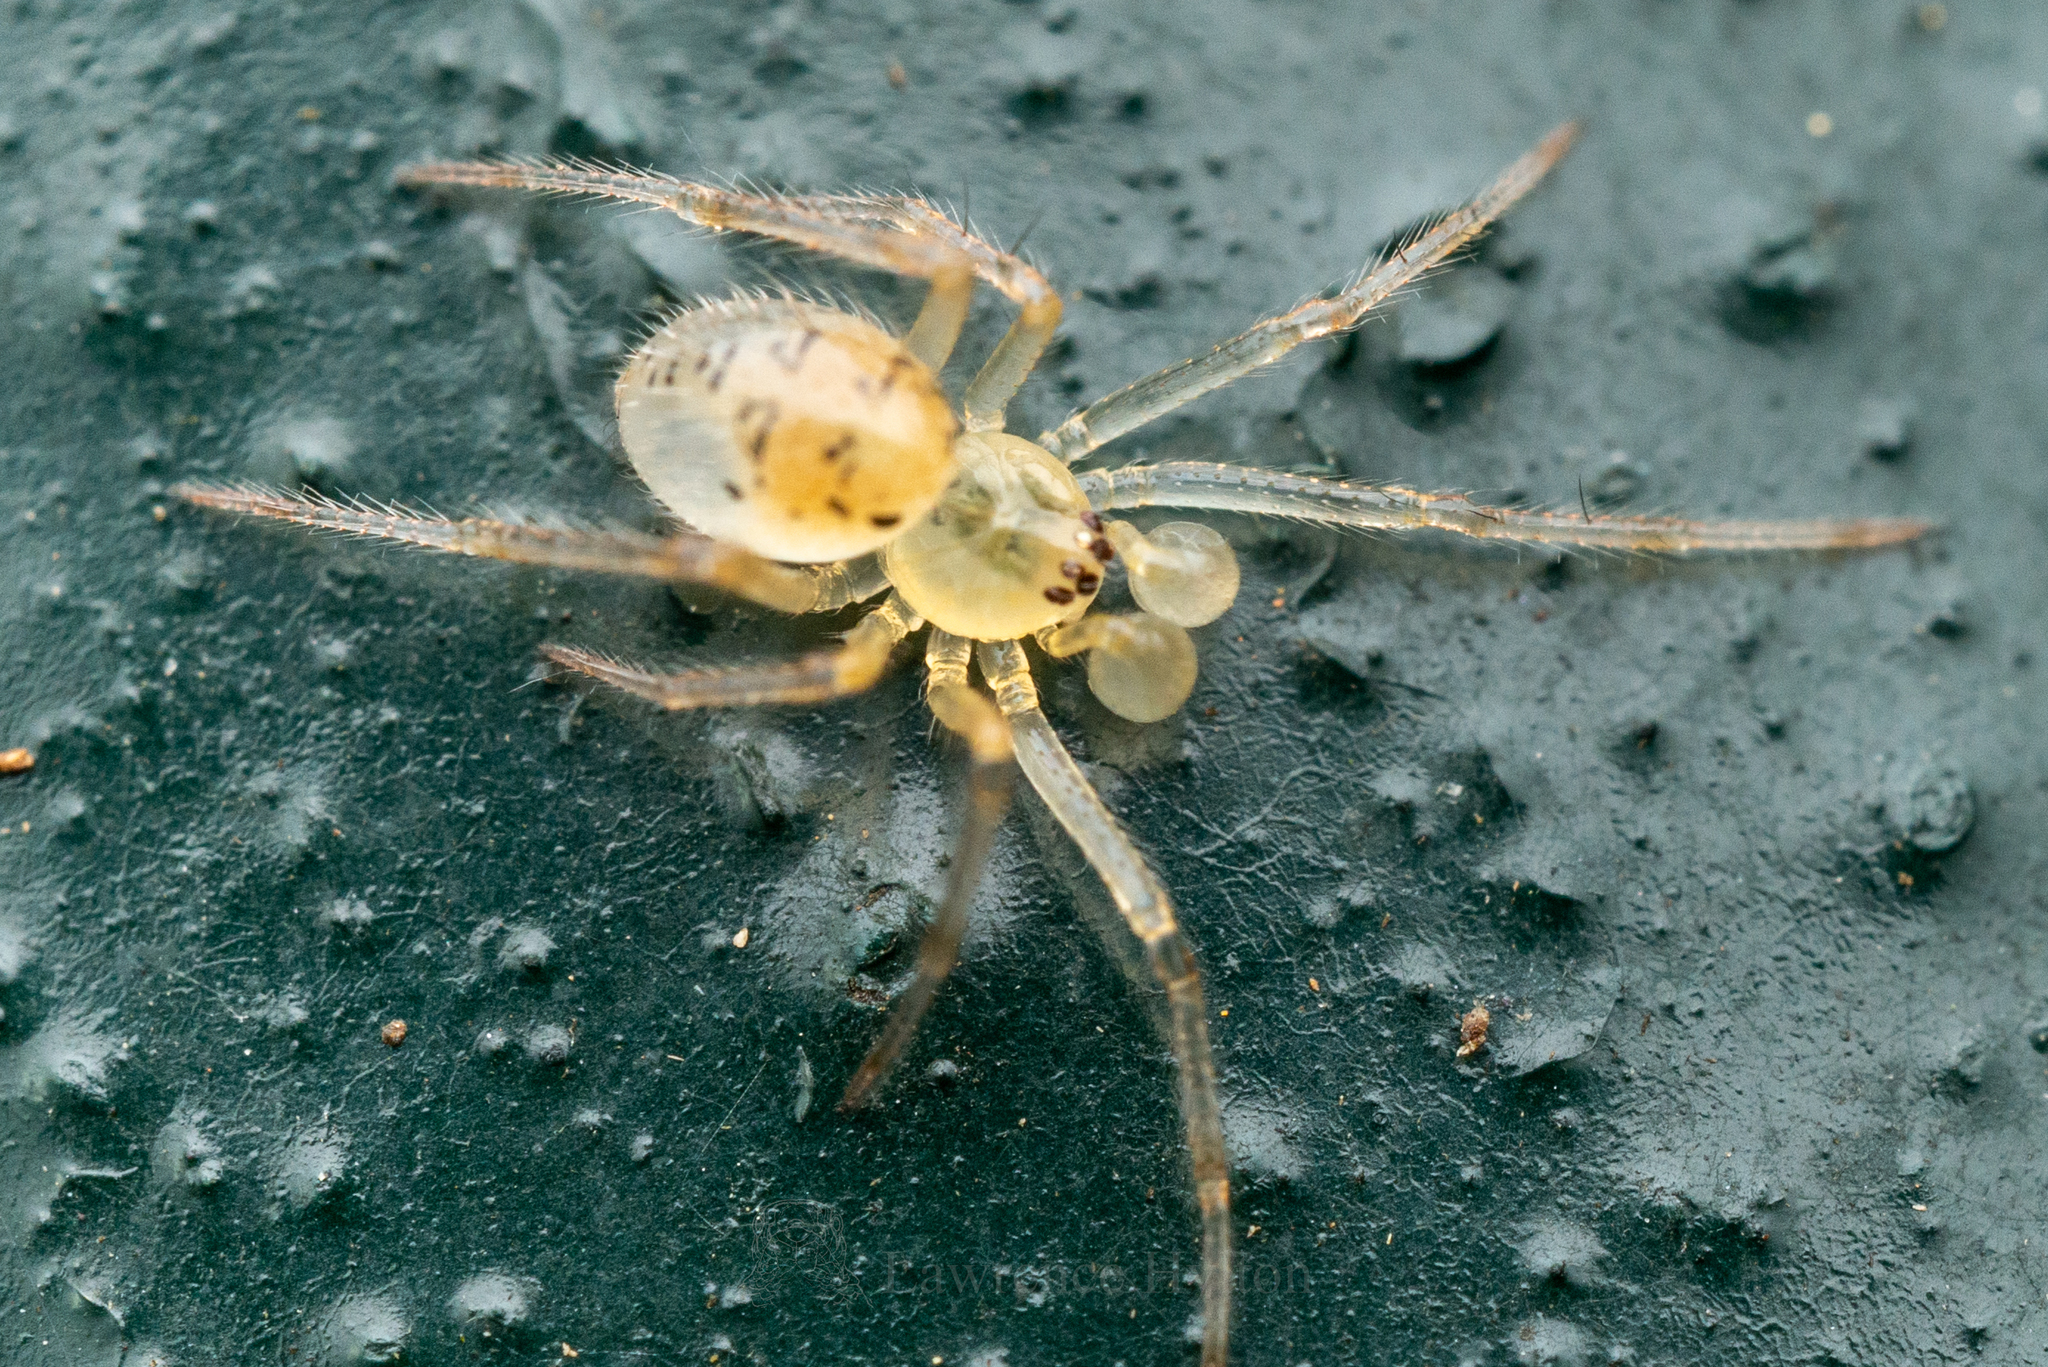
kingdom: Animalia
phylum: Arthropoda
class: Arachnida
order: Araneae
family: Theridiidae
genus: Phycosoma
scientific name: Phycosoma digitula
